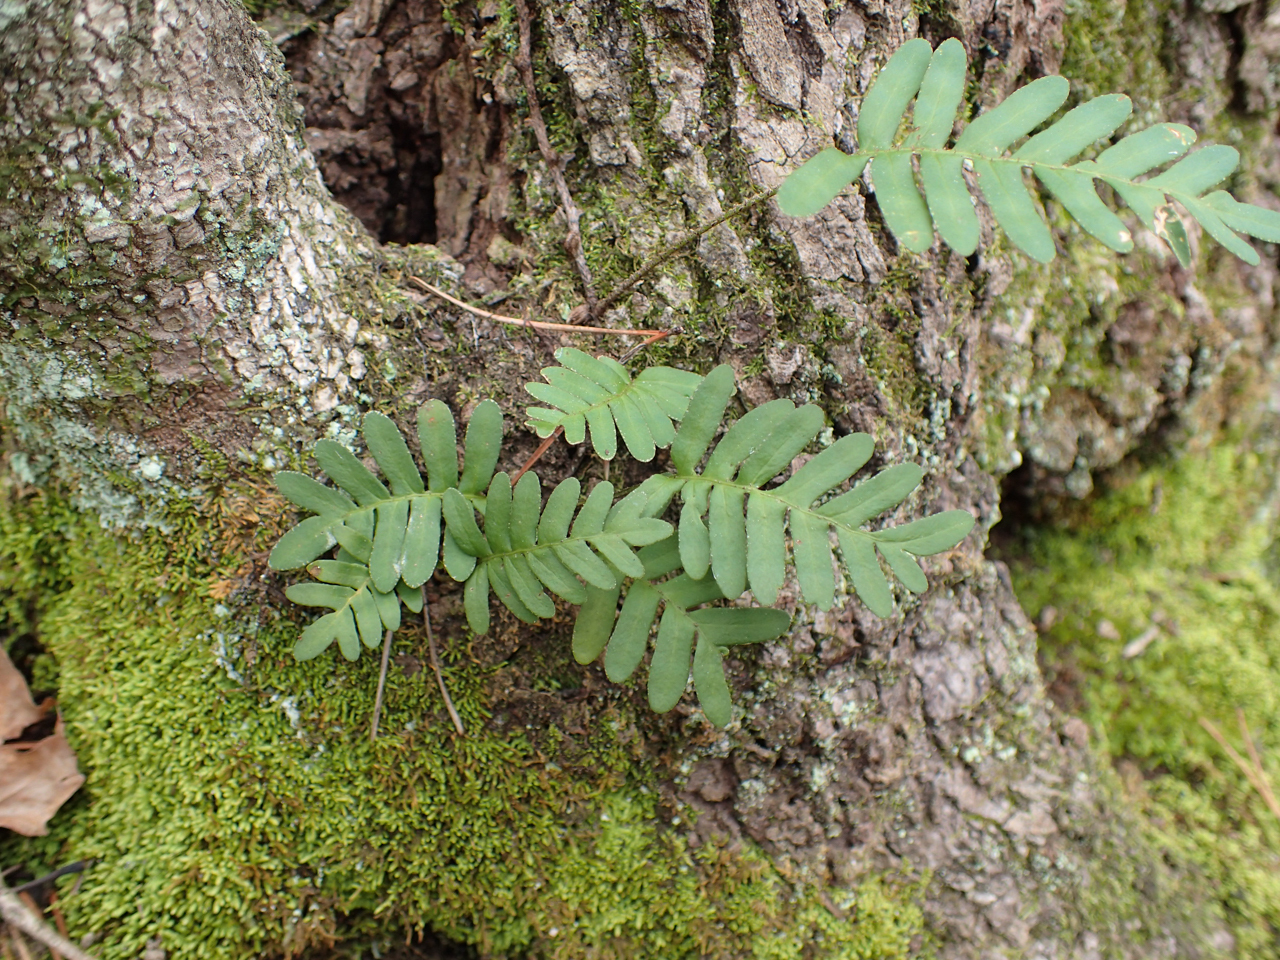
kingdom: Plantae
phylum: Tracheophyta
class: Polypodiopsida
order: Polypodiales
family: Polypodiaceae
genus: Pleopeltis
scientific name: Pleopeltis michauxiana
